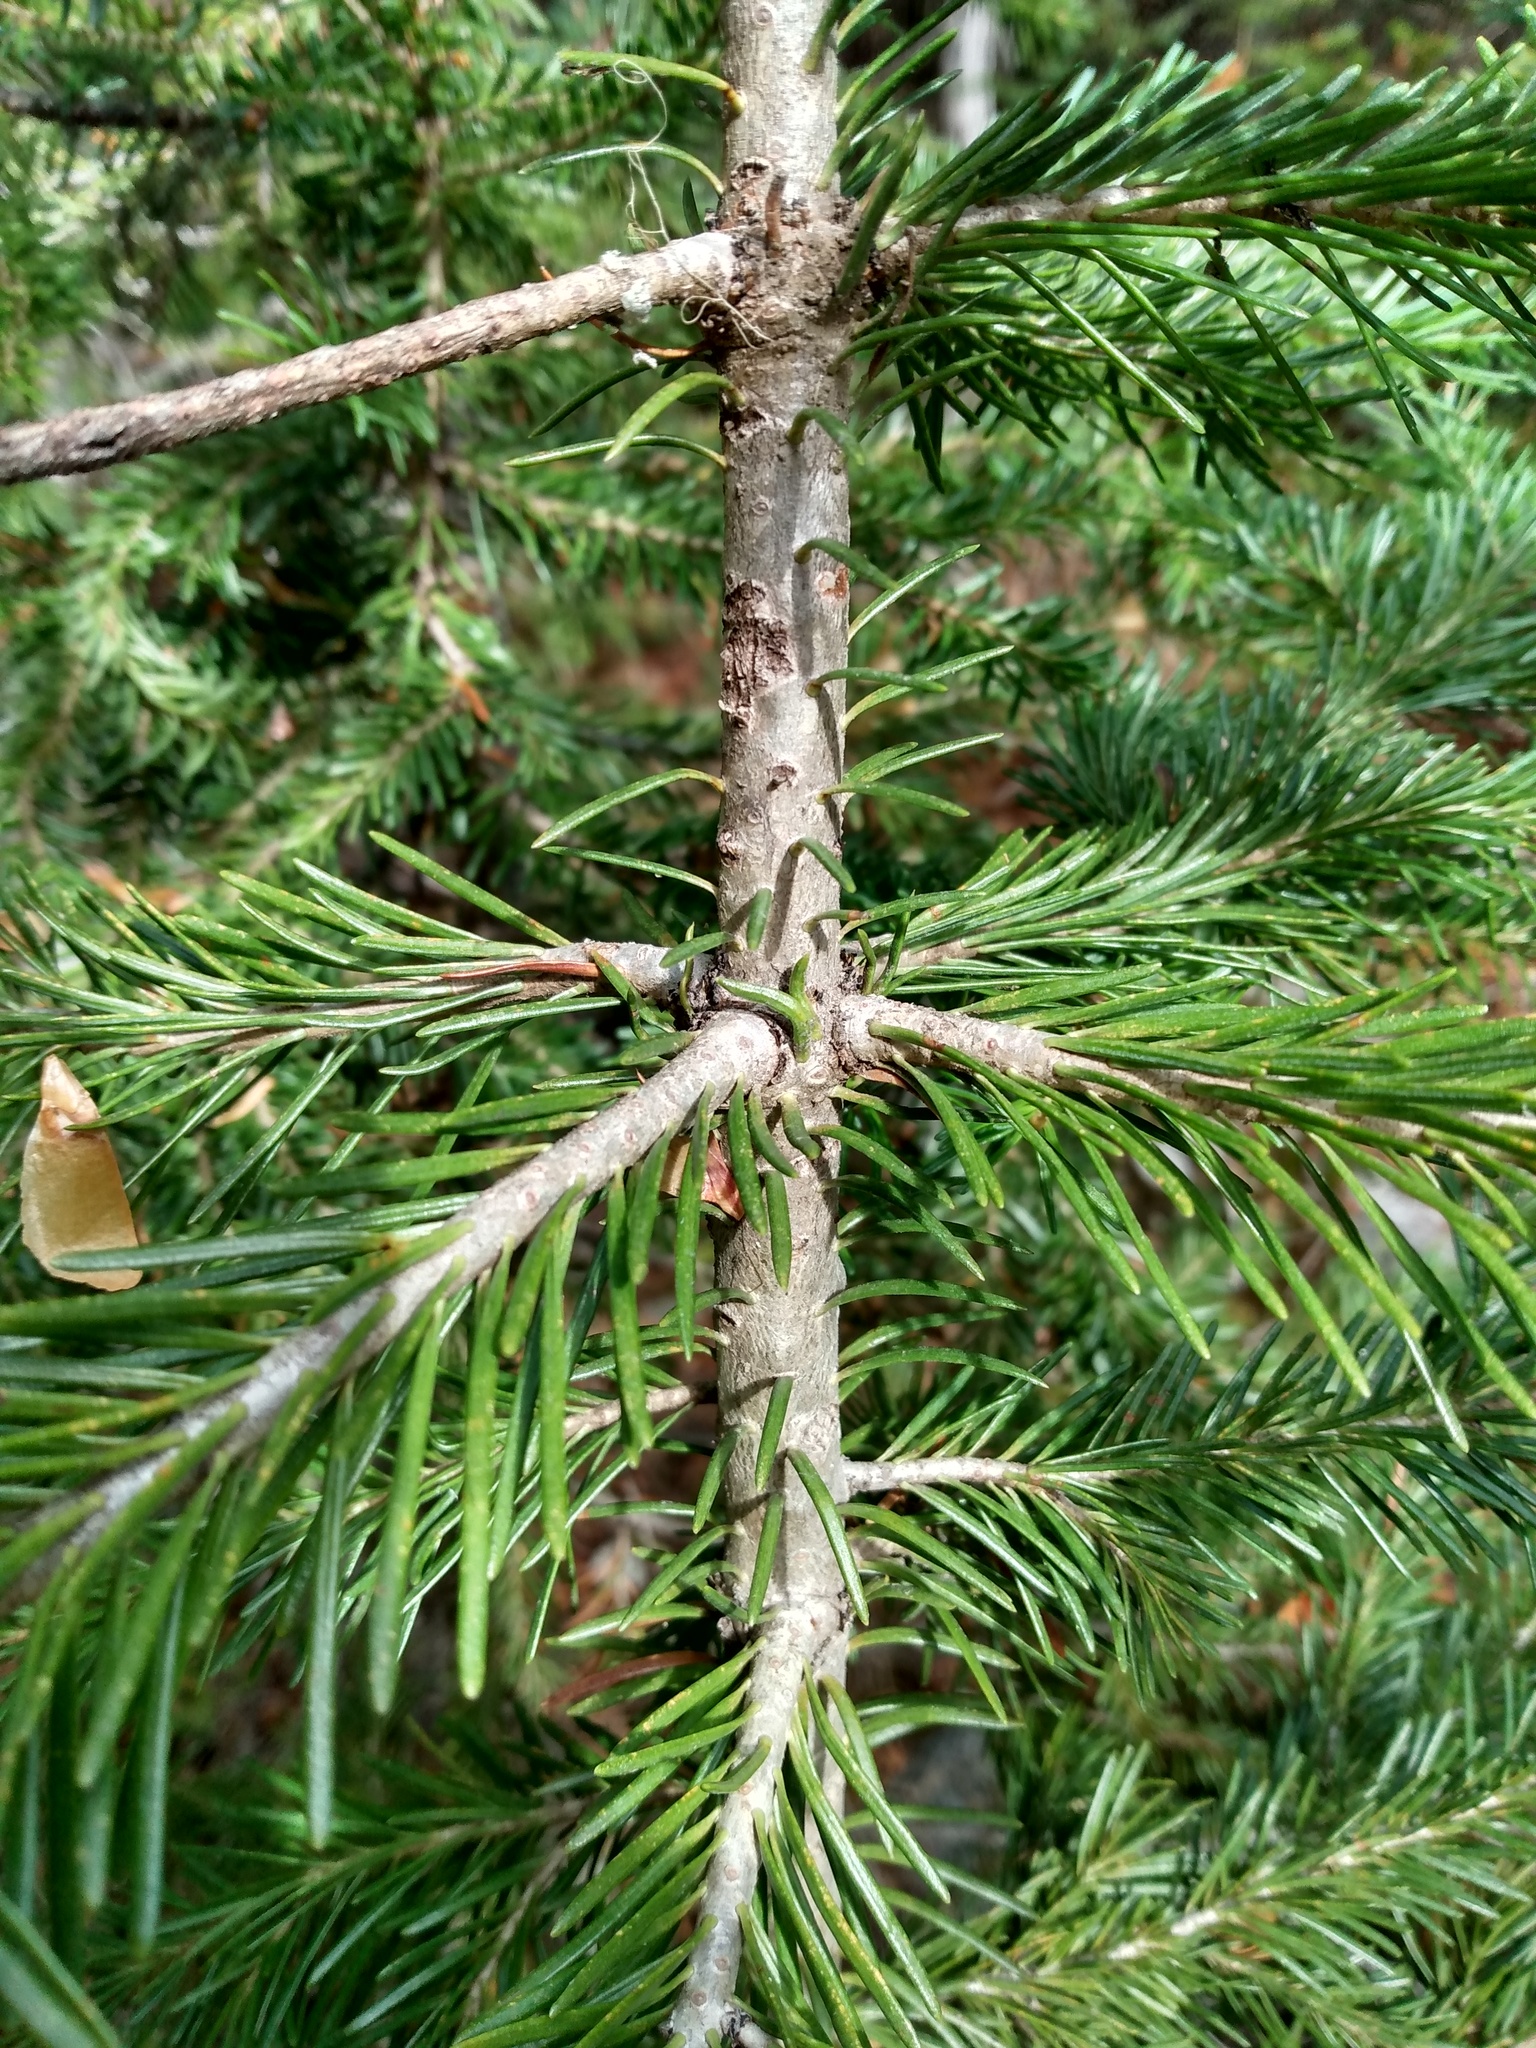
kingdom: Plantae
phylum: Tracheophyta
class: Pinopsida
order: Pinales
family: Pinaceae
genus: Abies
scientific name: Abies lasiocarpa
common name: Subalpine fir
